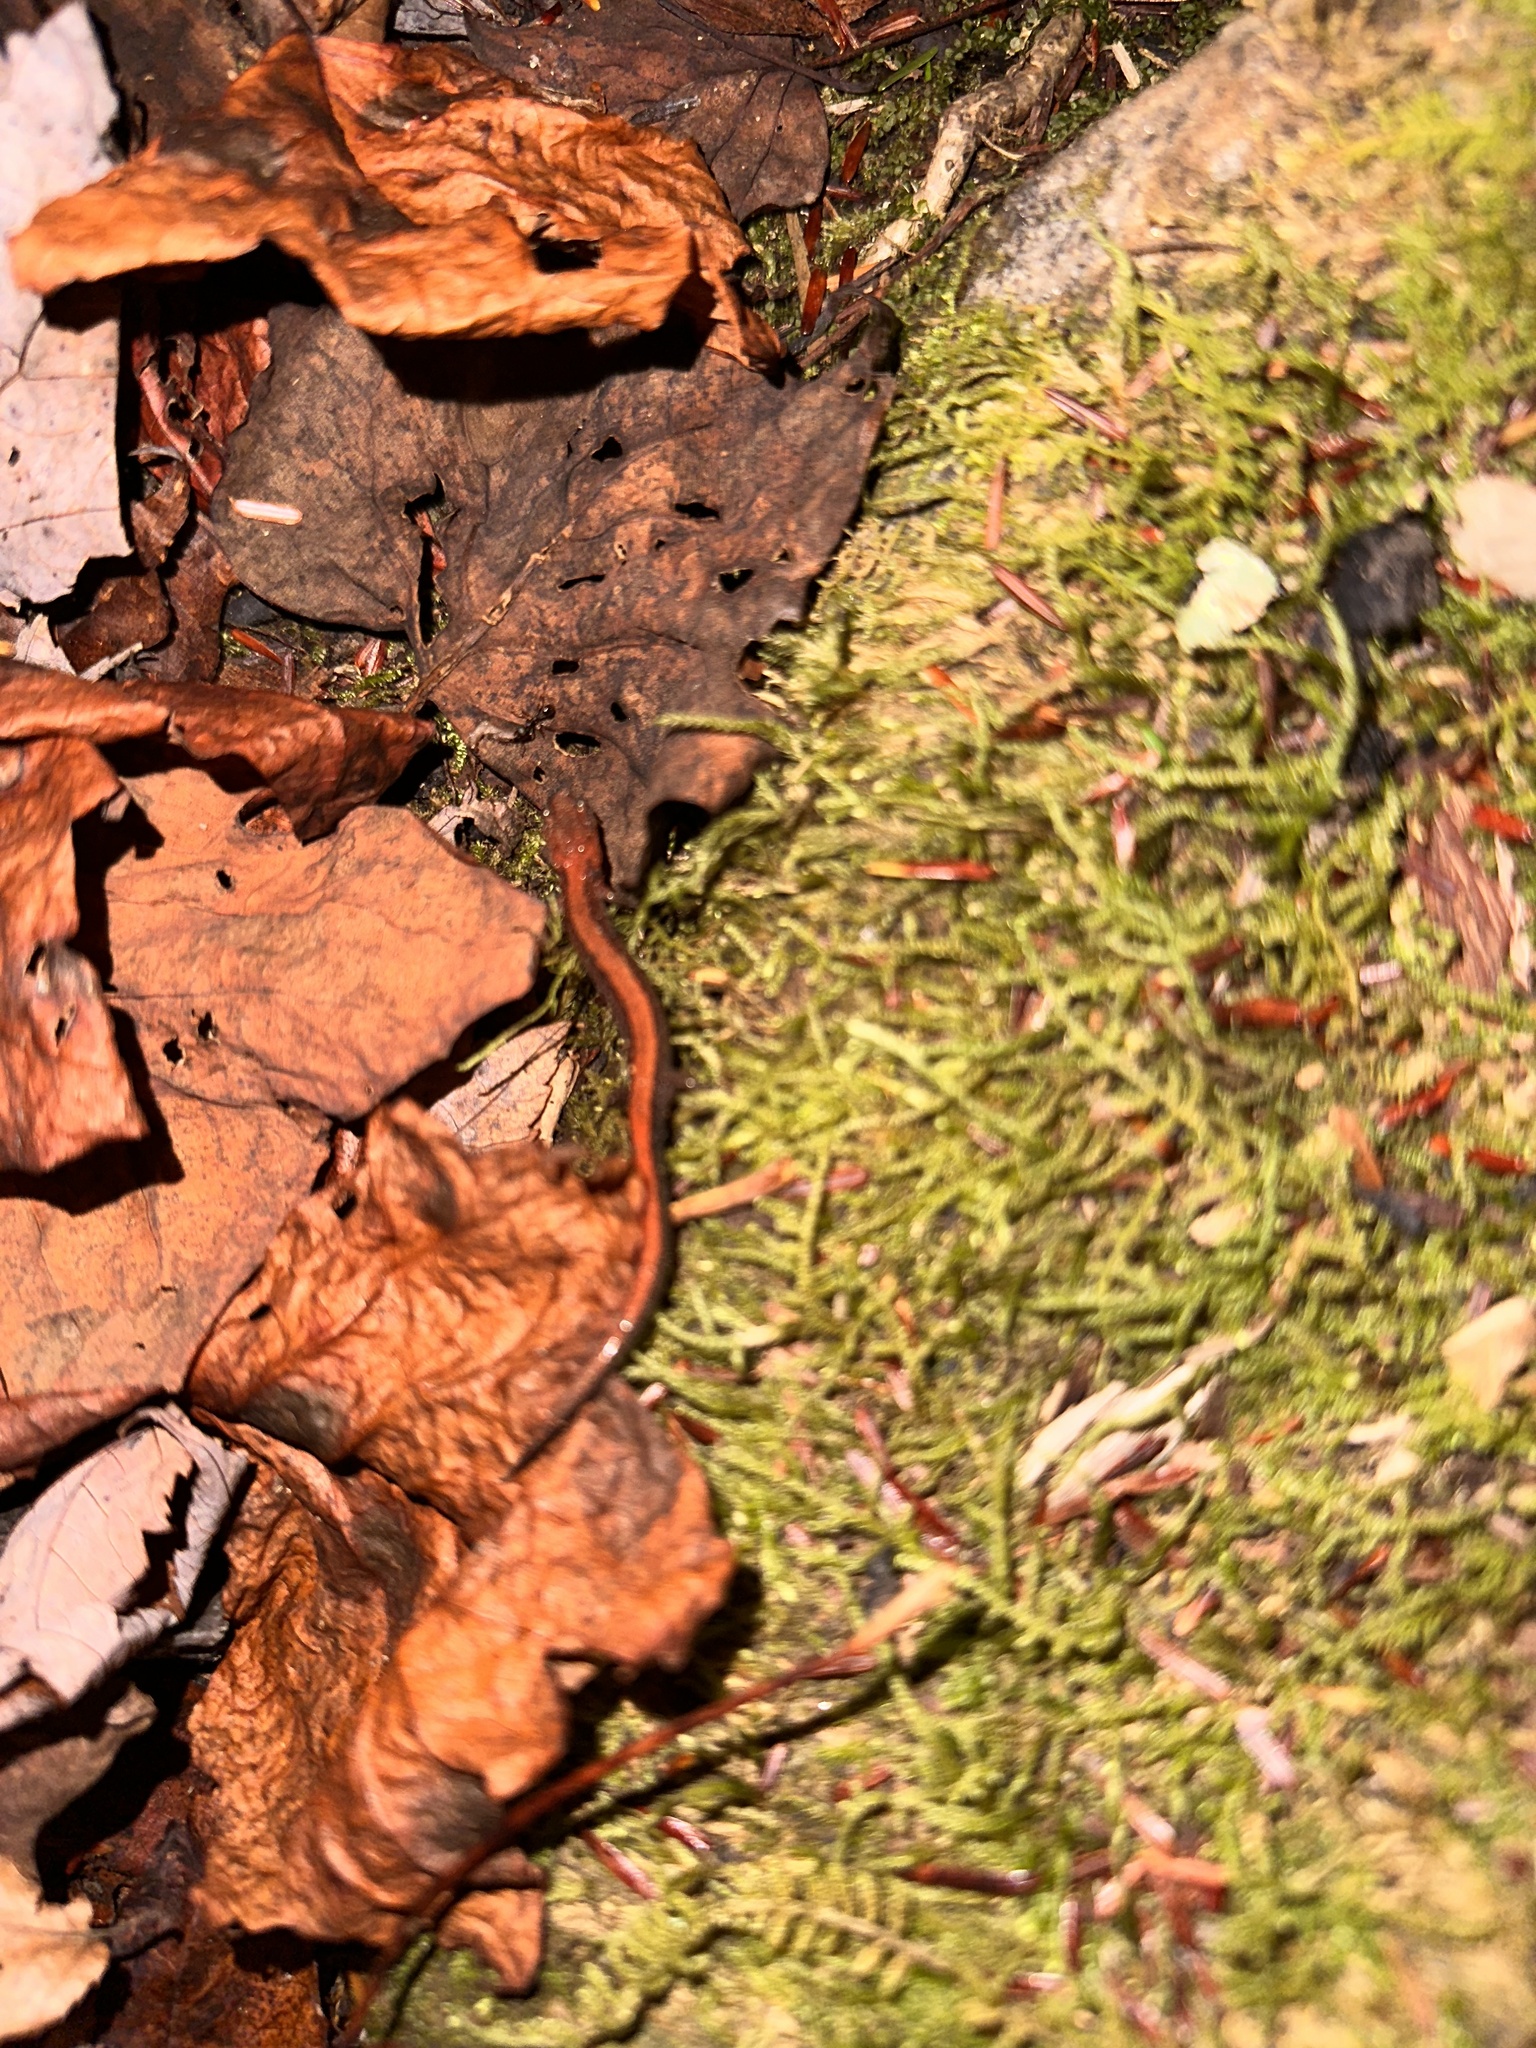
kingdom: Animalia
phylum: Chordata
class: Amphibia
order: Caudata
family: Plethodontidae
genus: Plethodon
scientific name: Plethodon cinereus
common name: Redback salamander
